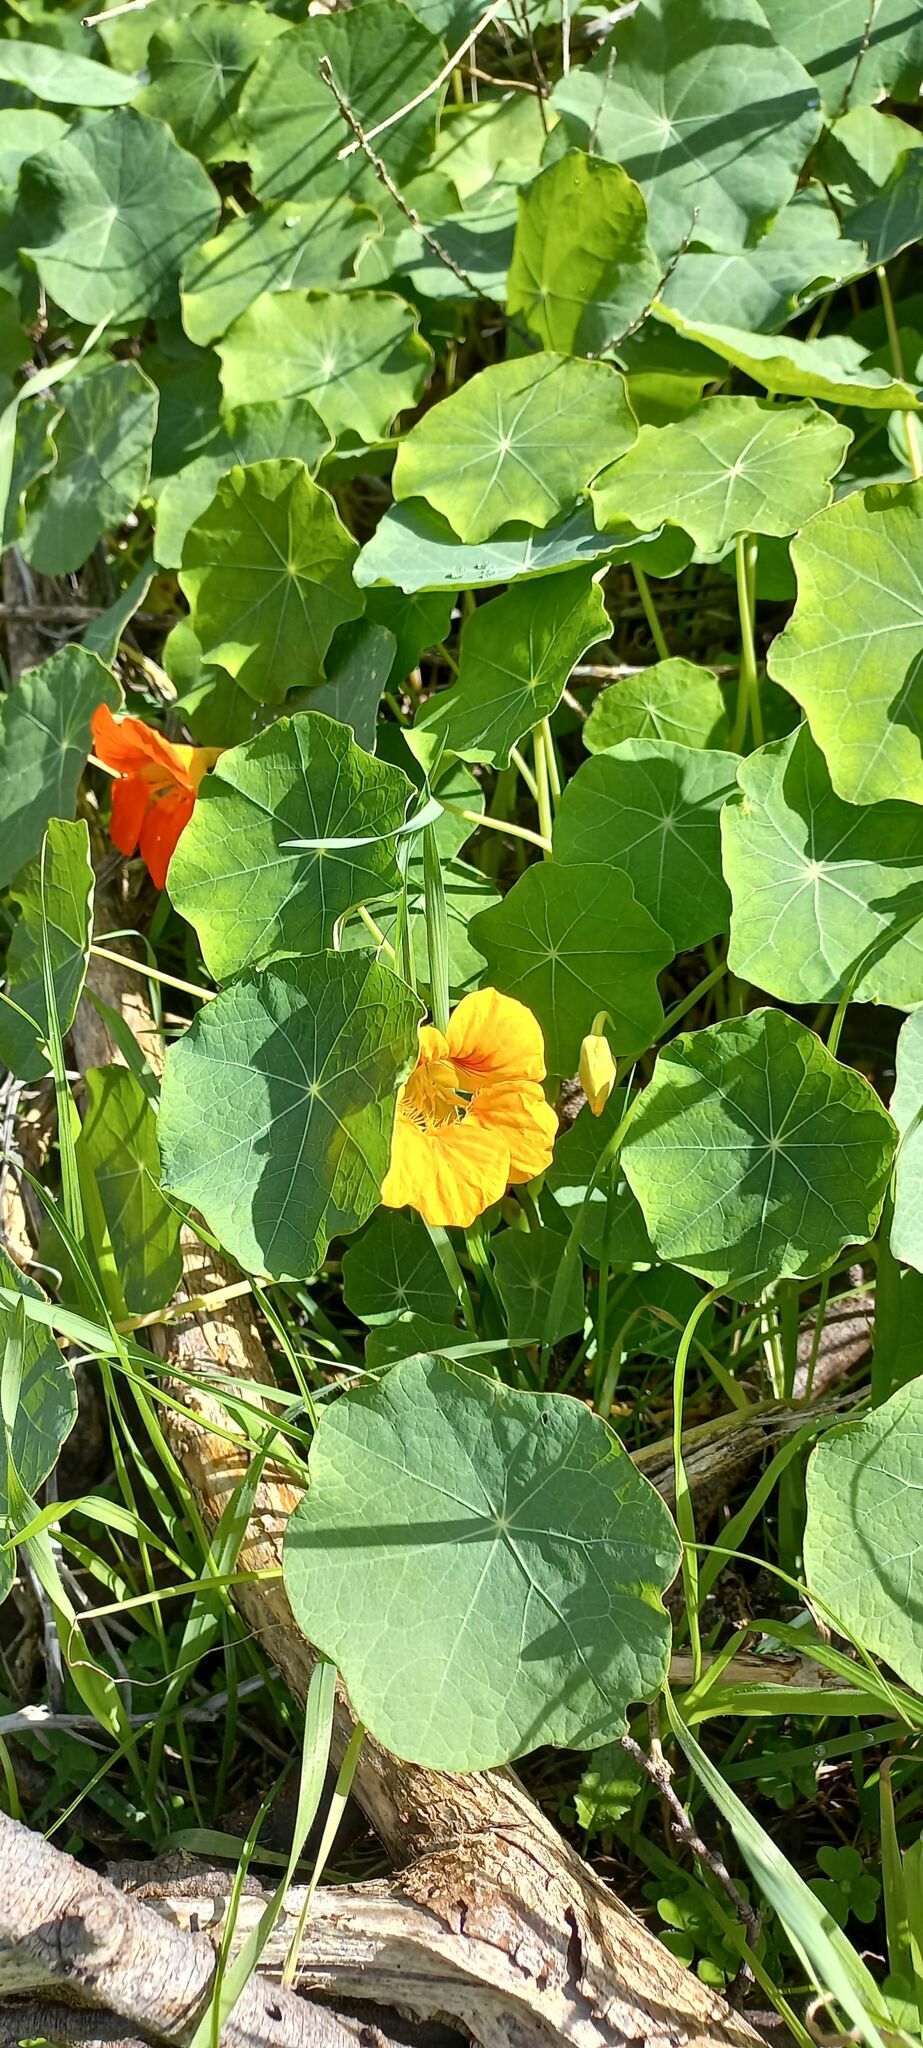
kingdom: Plantae
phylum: Tracheophyta
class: Magnoliopsida
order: Brassicales
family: Tropaeolaceae
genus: Tropaeolum
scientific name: Tropaeolum majus
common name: Nasturtium
